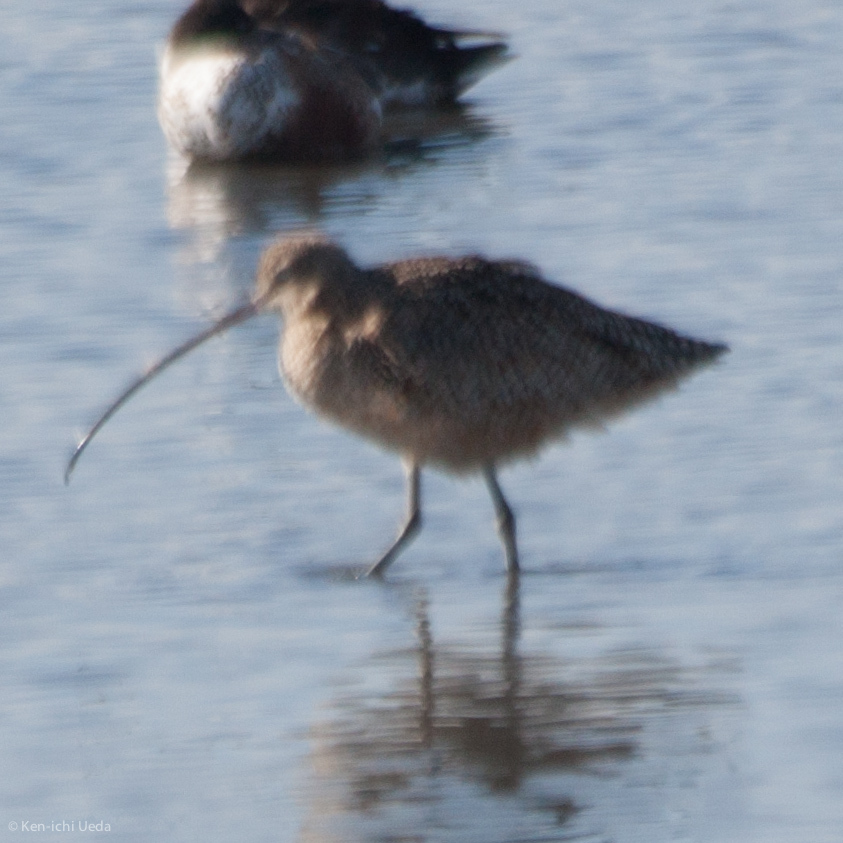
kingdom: Animalia
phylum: Chordata
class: Aves
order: Charadriiformes
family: Scolopacidae
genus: Numenius
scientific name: Numenius americanus
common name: Long-billed curlew
